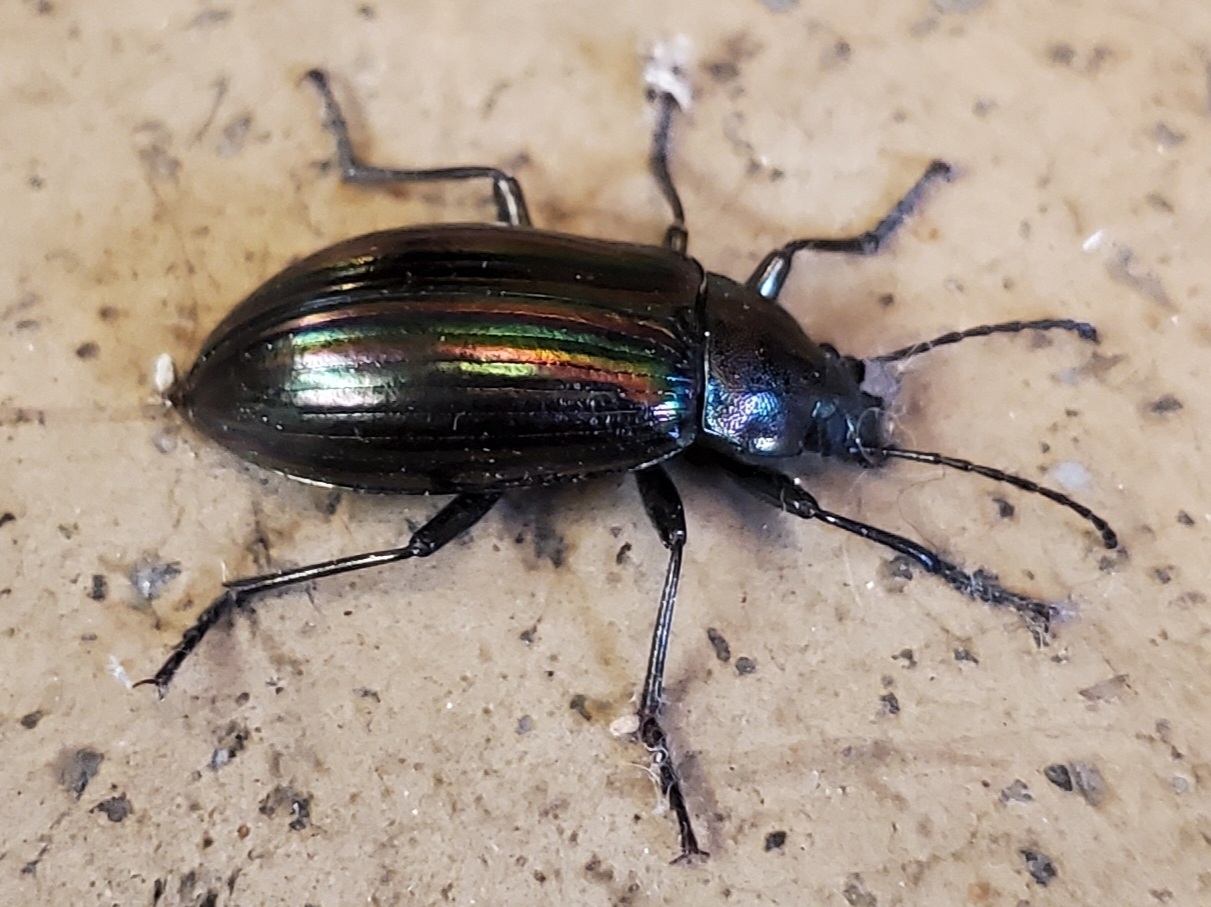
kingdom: Animalia
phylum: Arthropoda
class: Insecta
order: Coleoptera
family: Tenebrionidae
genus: Tarpela
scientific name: Tarpela micans
